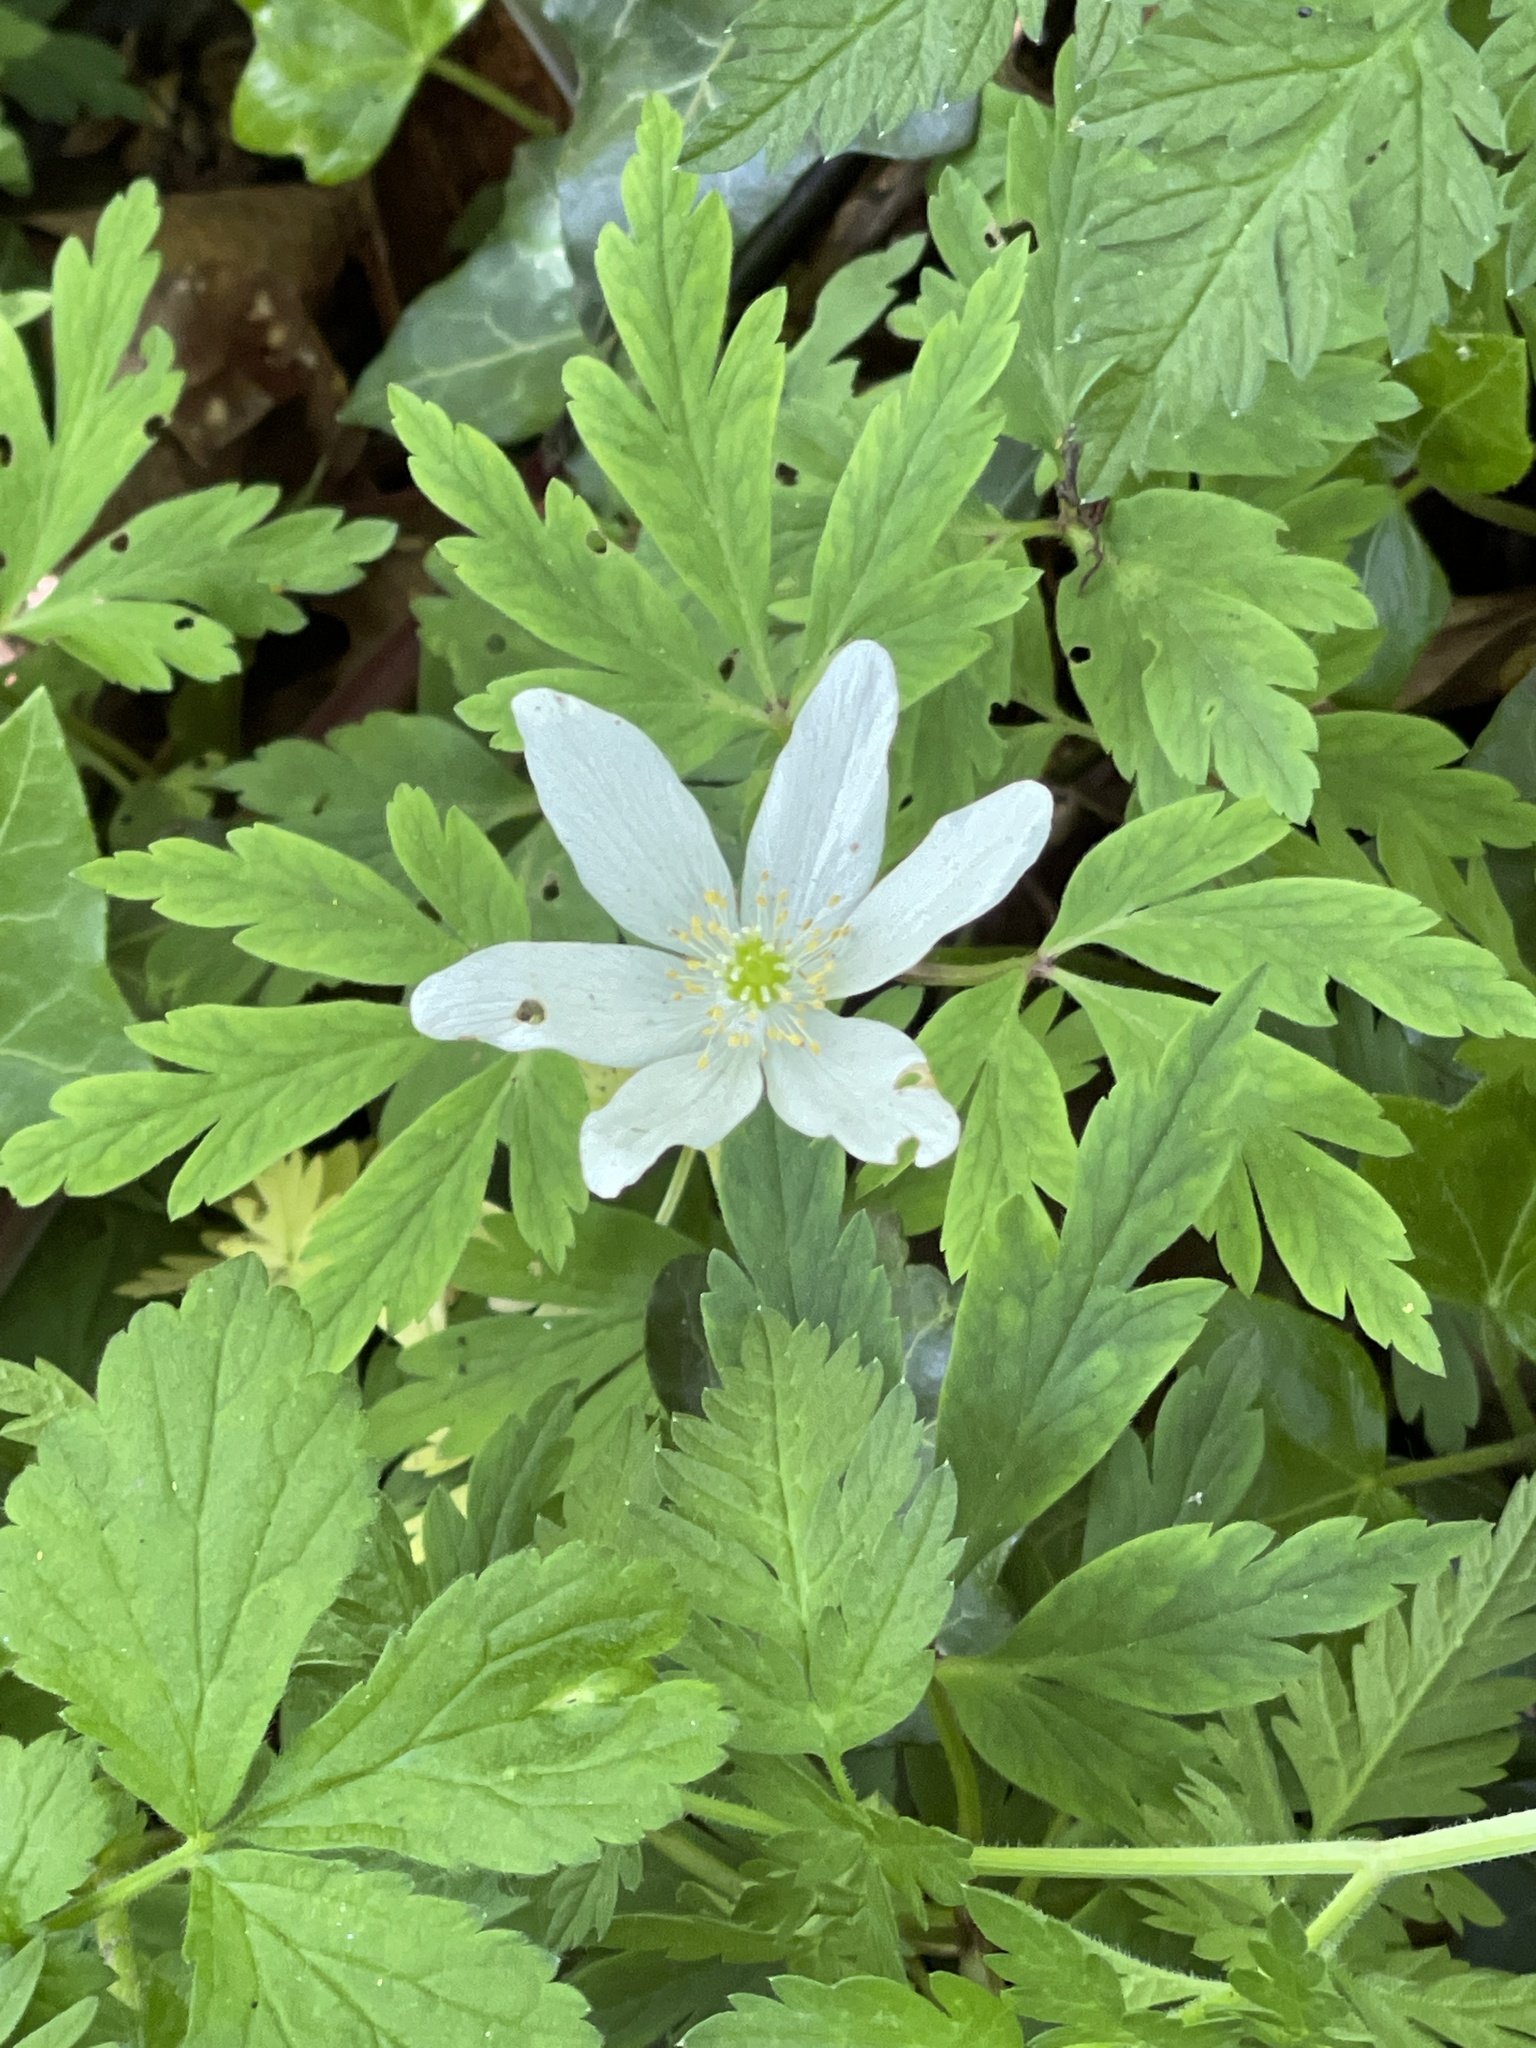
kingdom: Plantae
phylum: Tracheophyta
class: Magnoliopsida
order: Ranunculales
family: Ranunculaceae
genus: Anemone
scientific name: Anemone nemorosa
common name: Wood anemone
